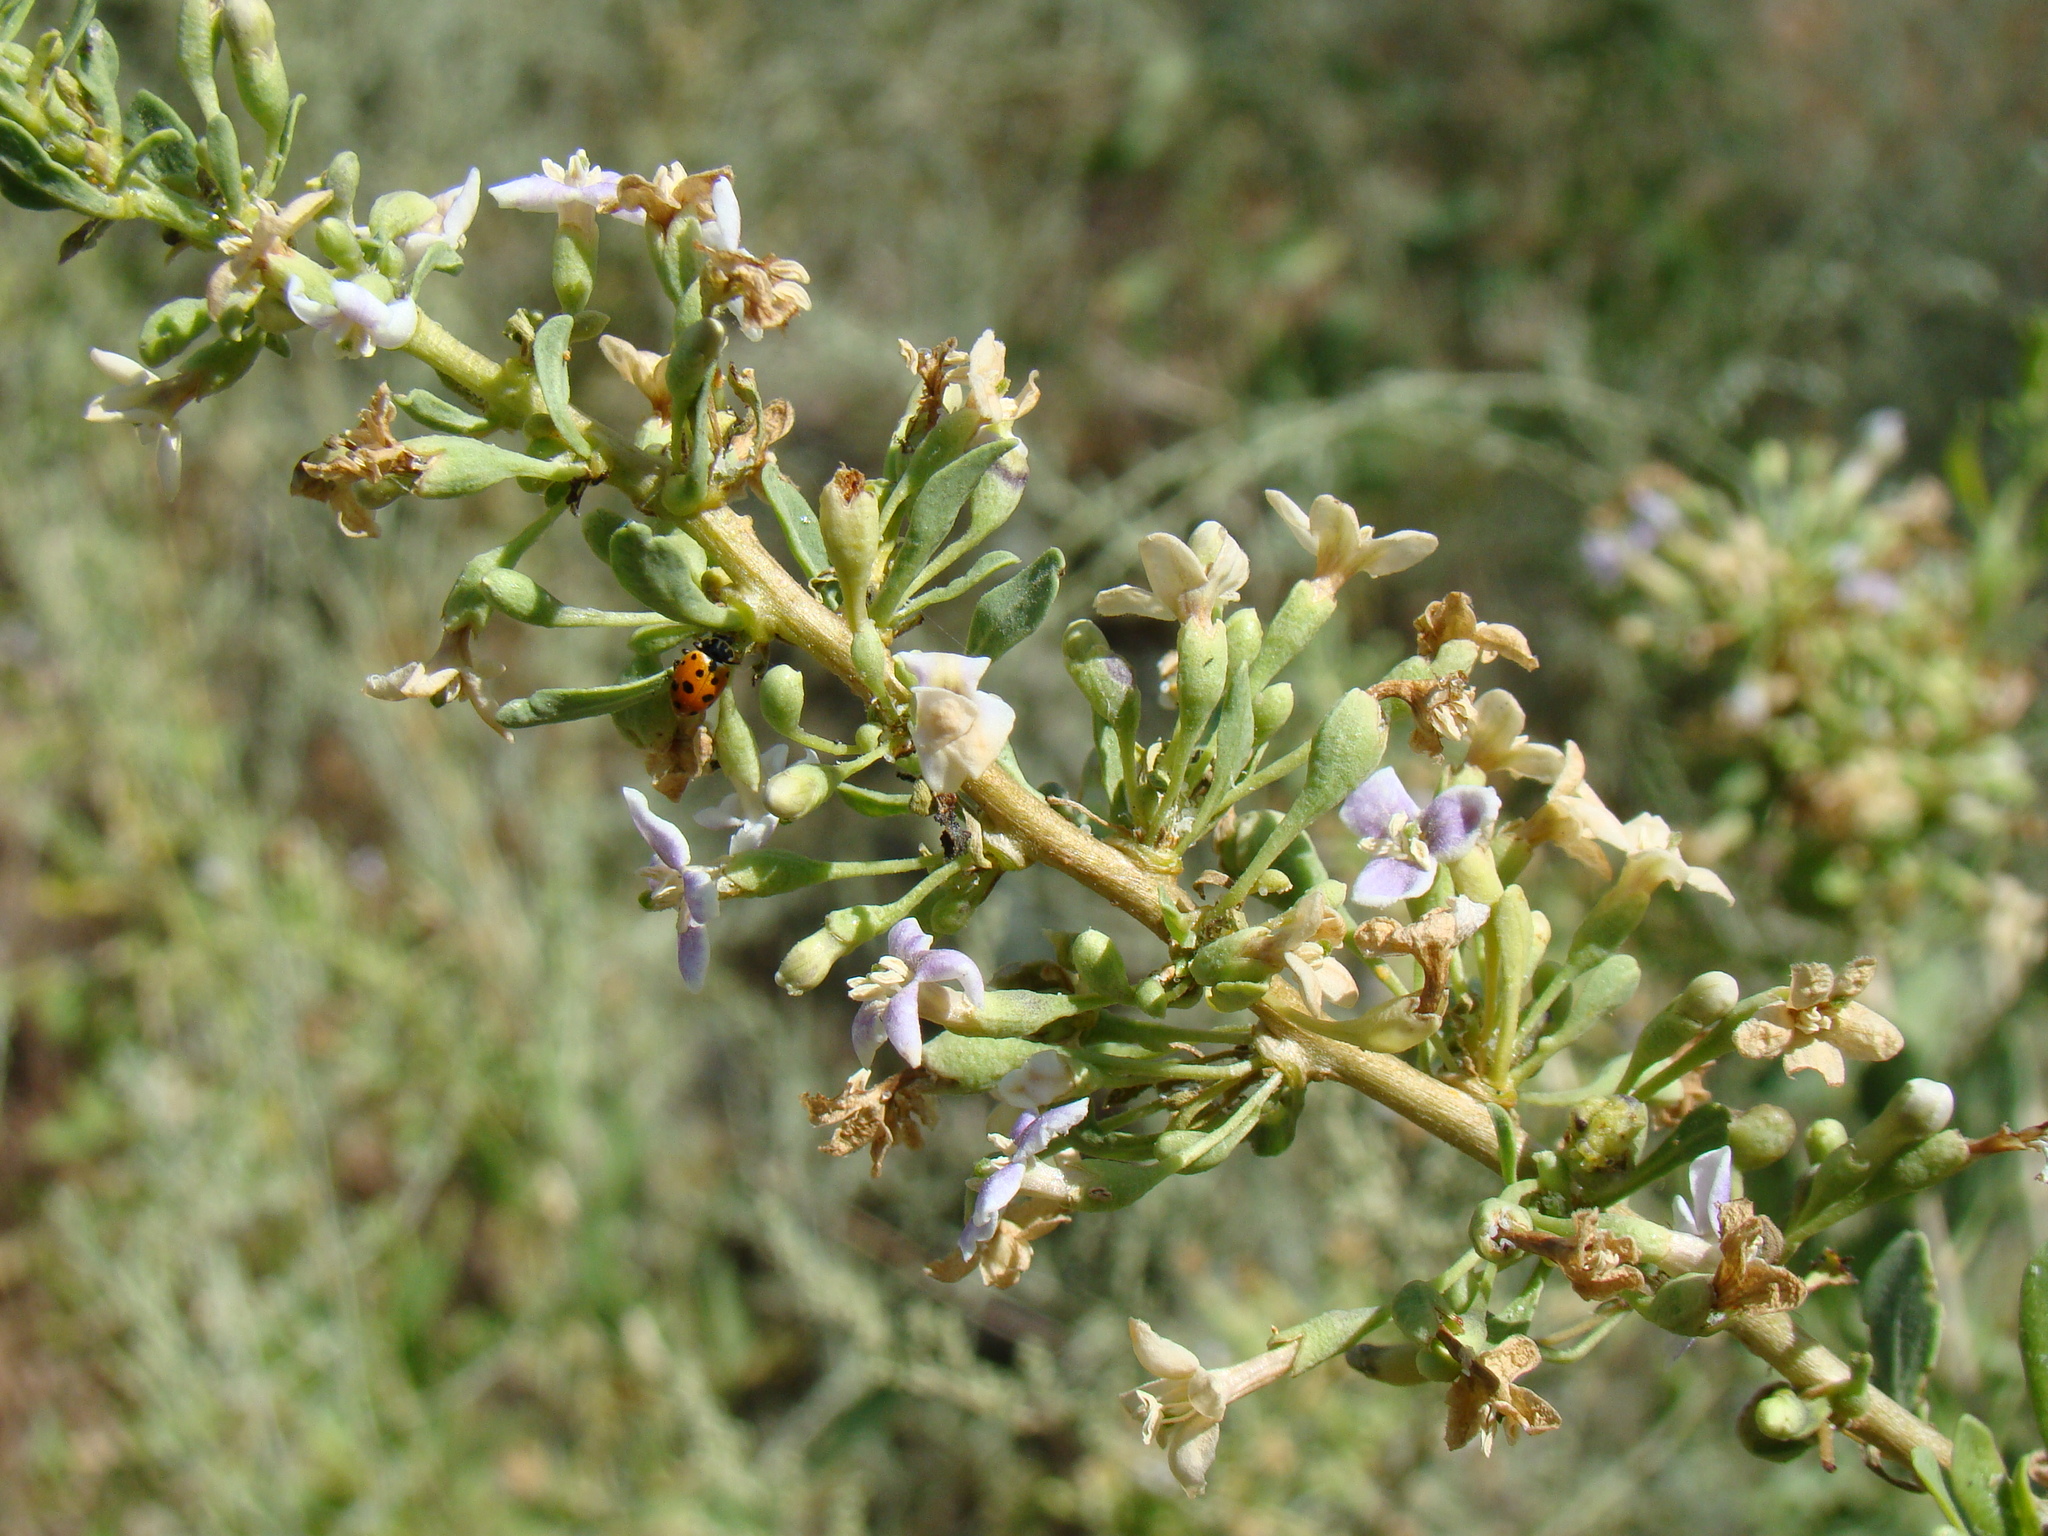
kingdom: Plantae
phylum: Tracheophyta
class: Magnoliopsida
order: Solanales
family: Solanaceae
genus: Lycium
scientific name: Lycium dasystemum
